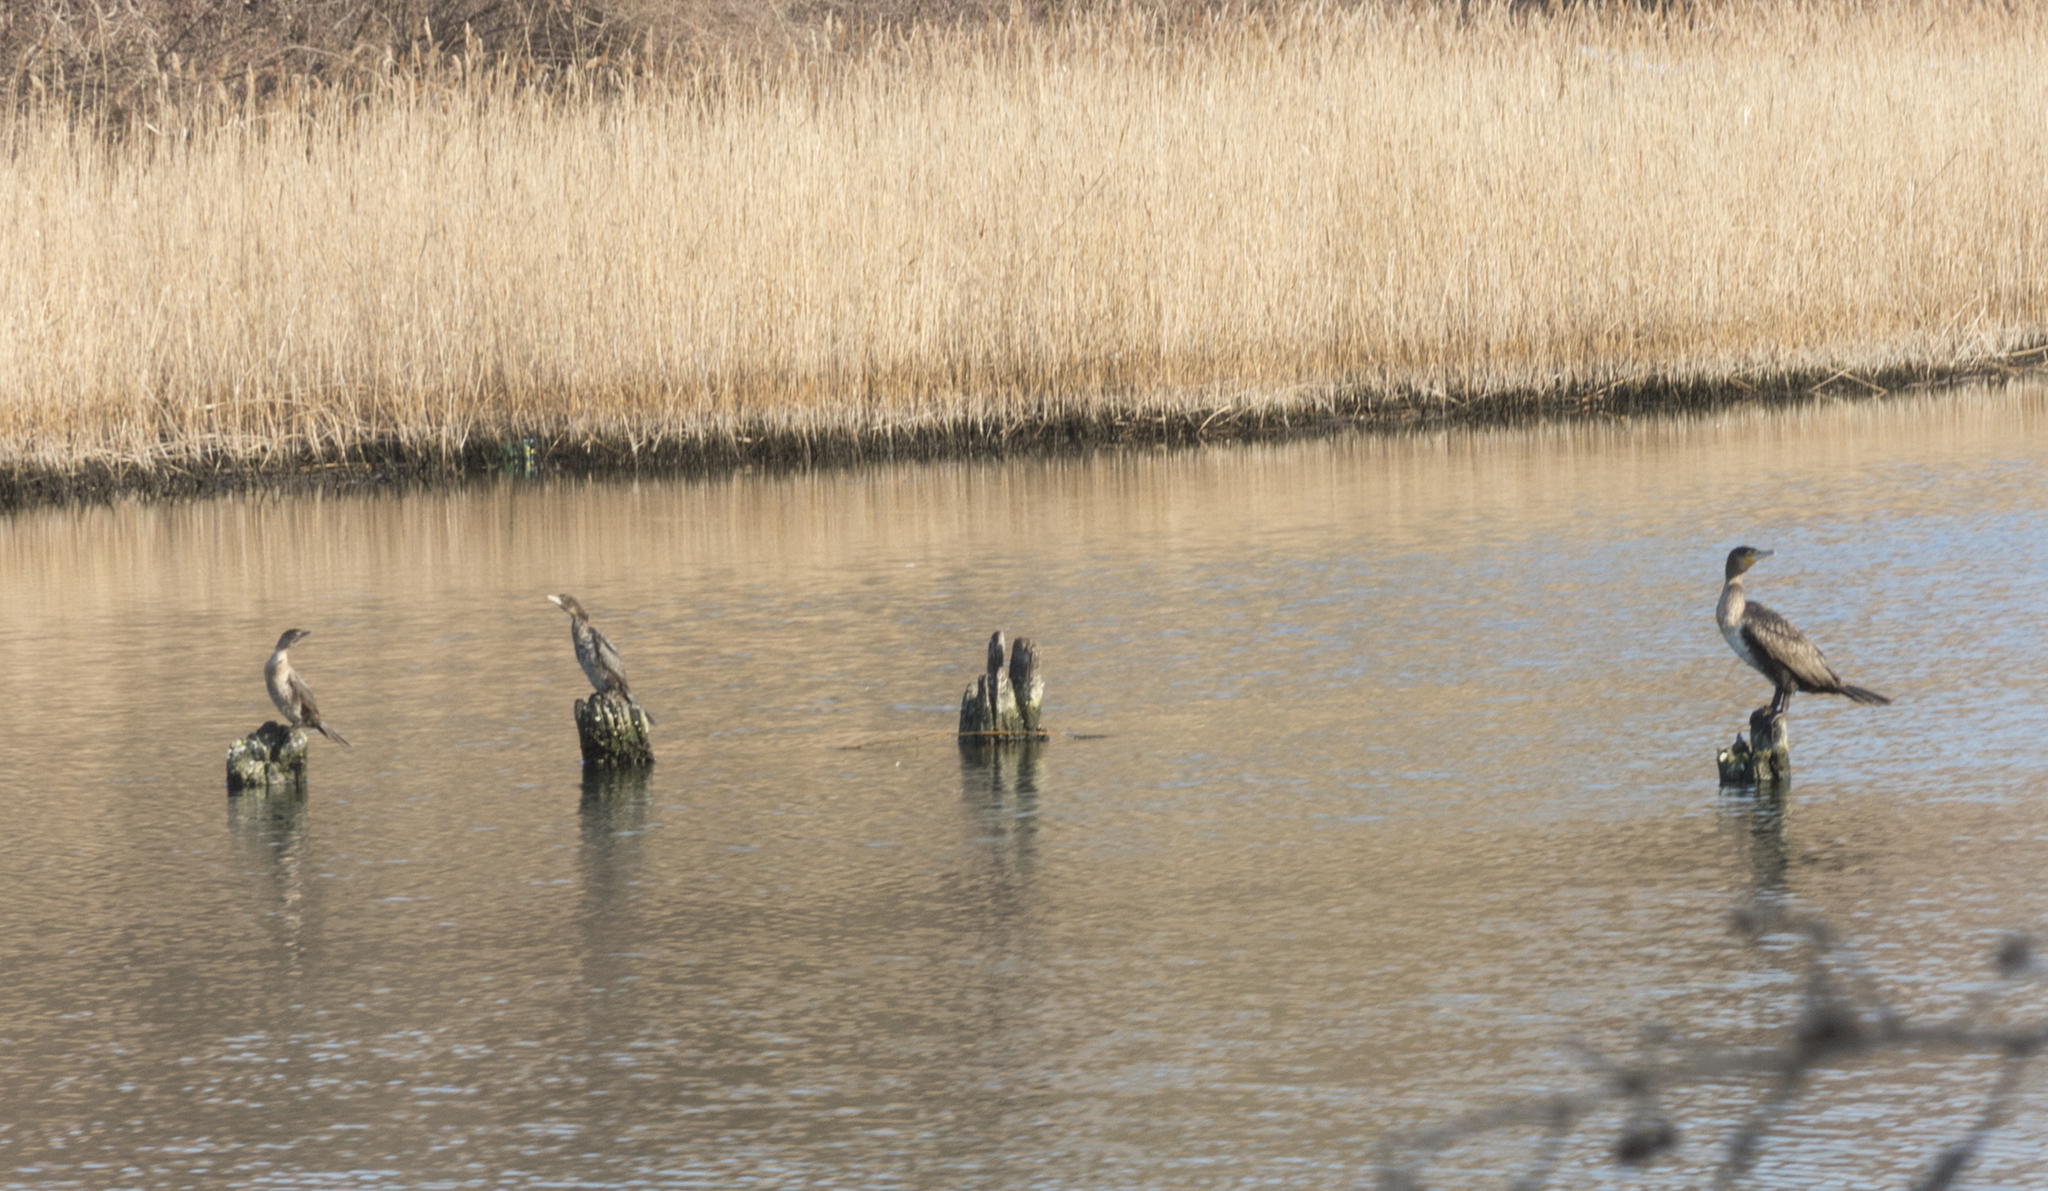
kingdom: Animalia
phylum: Chordata
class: Aves
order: Suliformes
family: Phalacrocoracidae
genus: Phalacrocorax
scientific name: Phalacrocorax carbo
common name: Great cormorant
